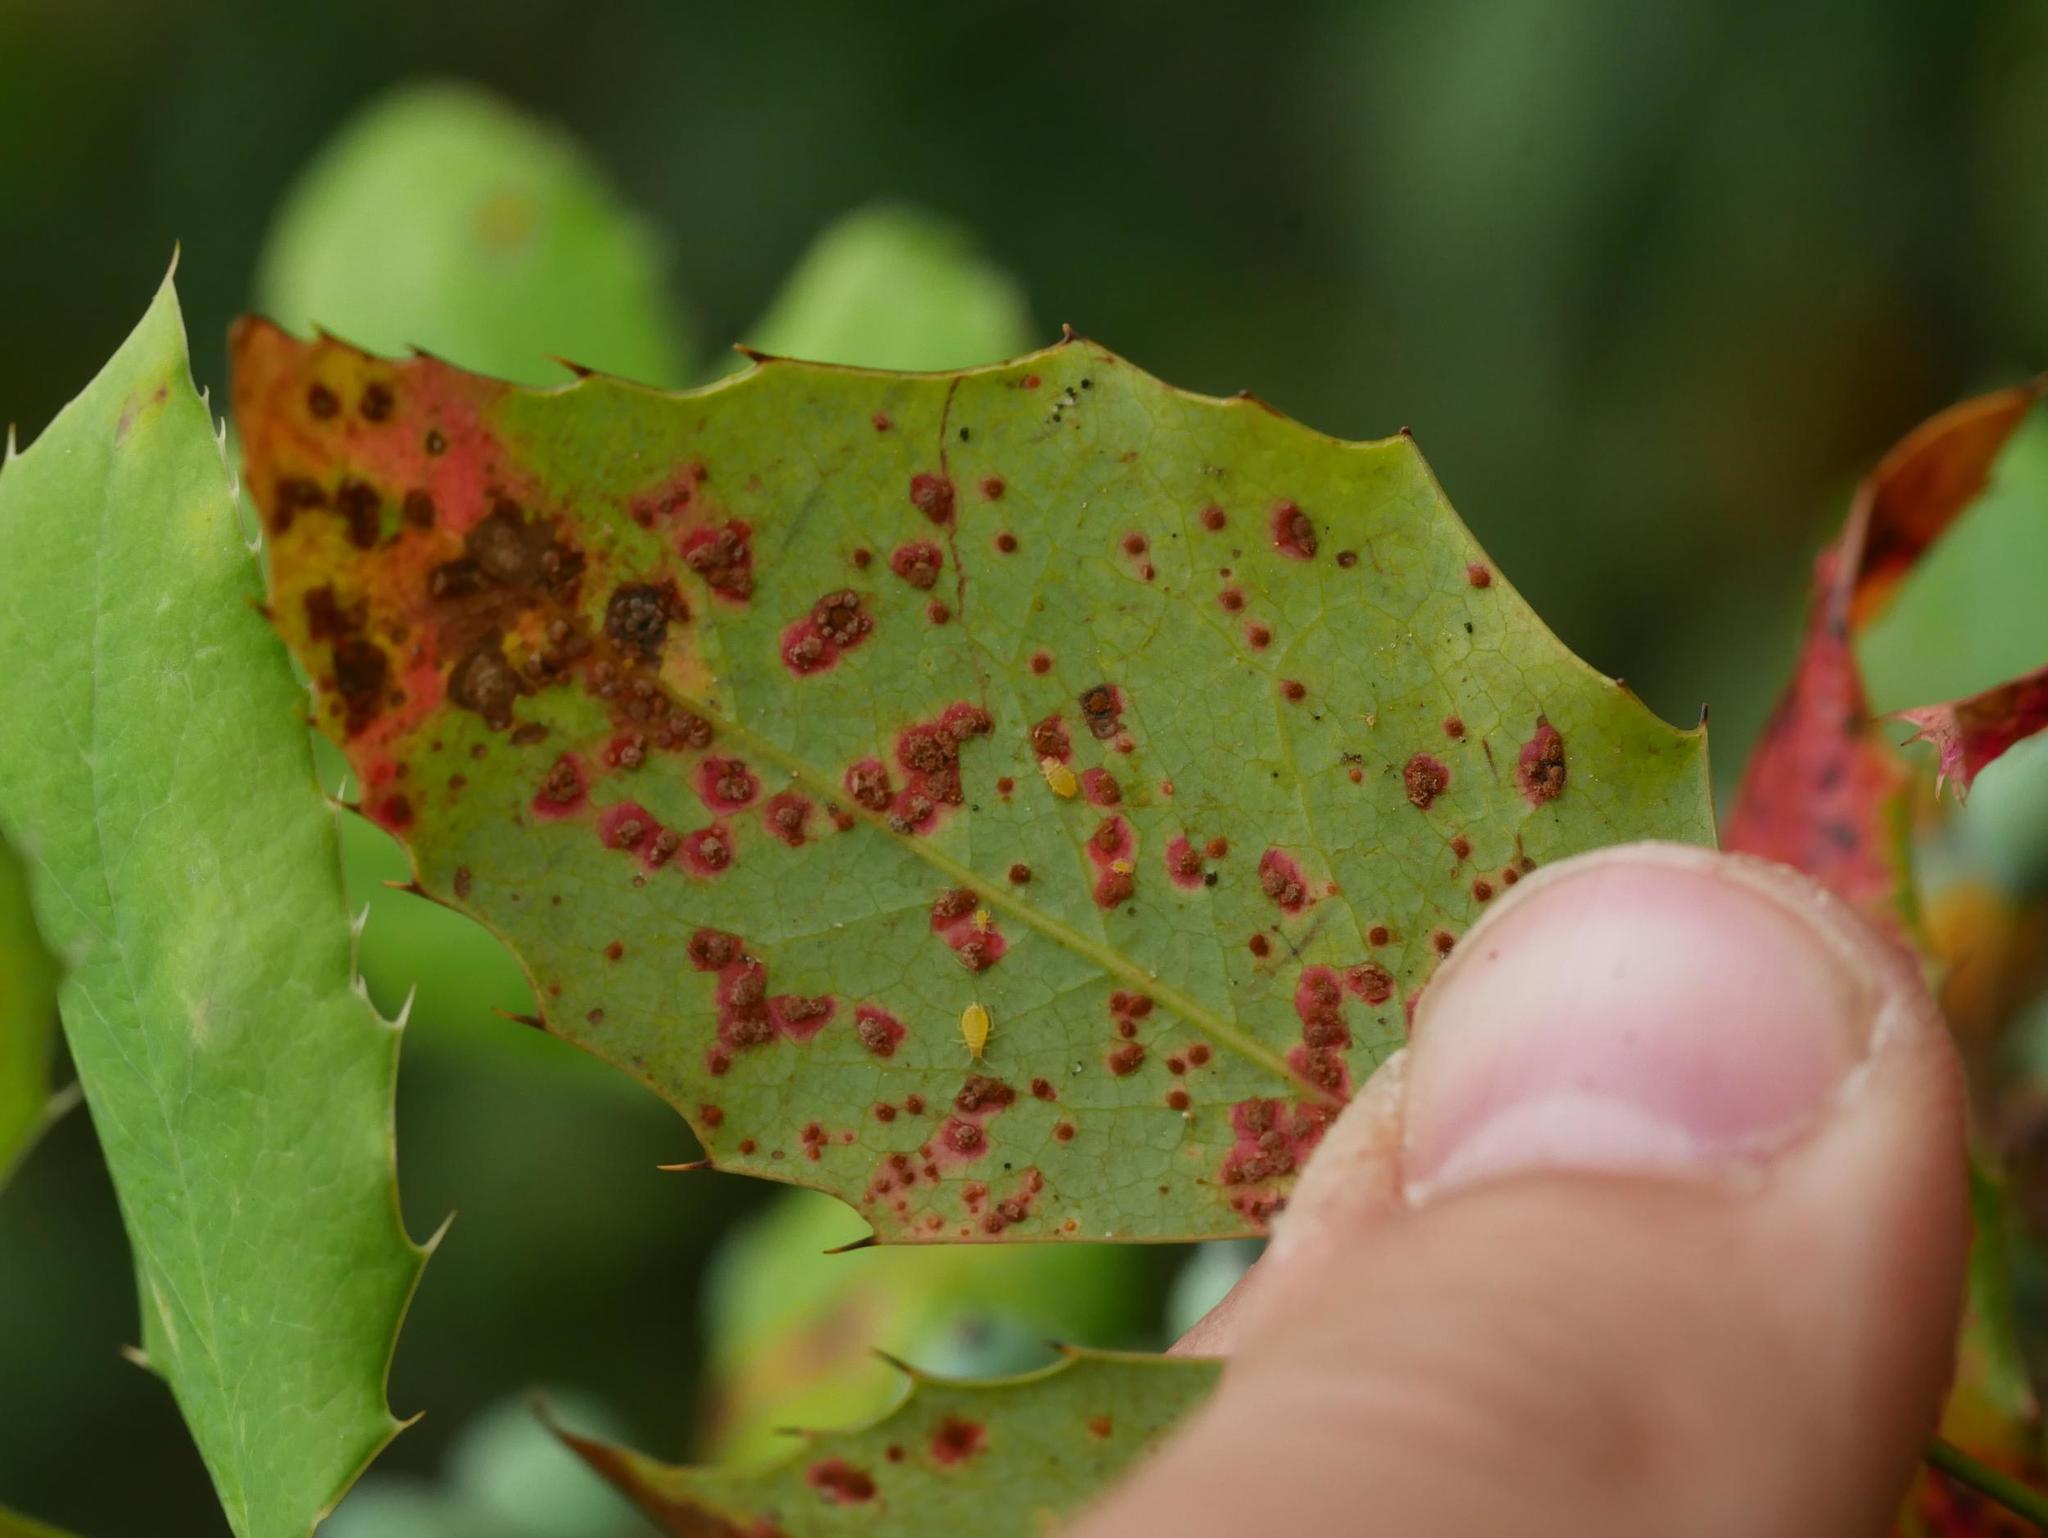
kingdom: Fungi
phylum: Basidiomycota
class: Pucciniomycetes
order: Pucciniales
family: Pucciniaceae
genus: Cumminsiella
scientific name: Cumminsiella mirabilissima
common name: Mahonia rust
